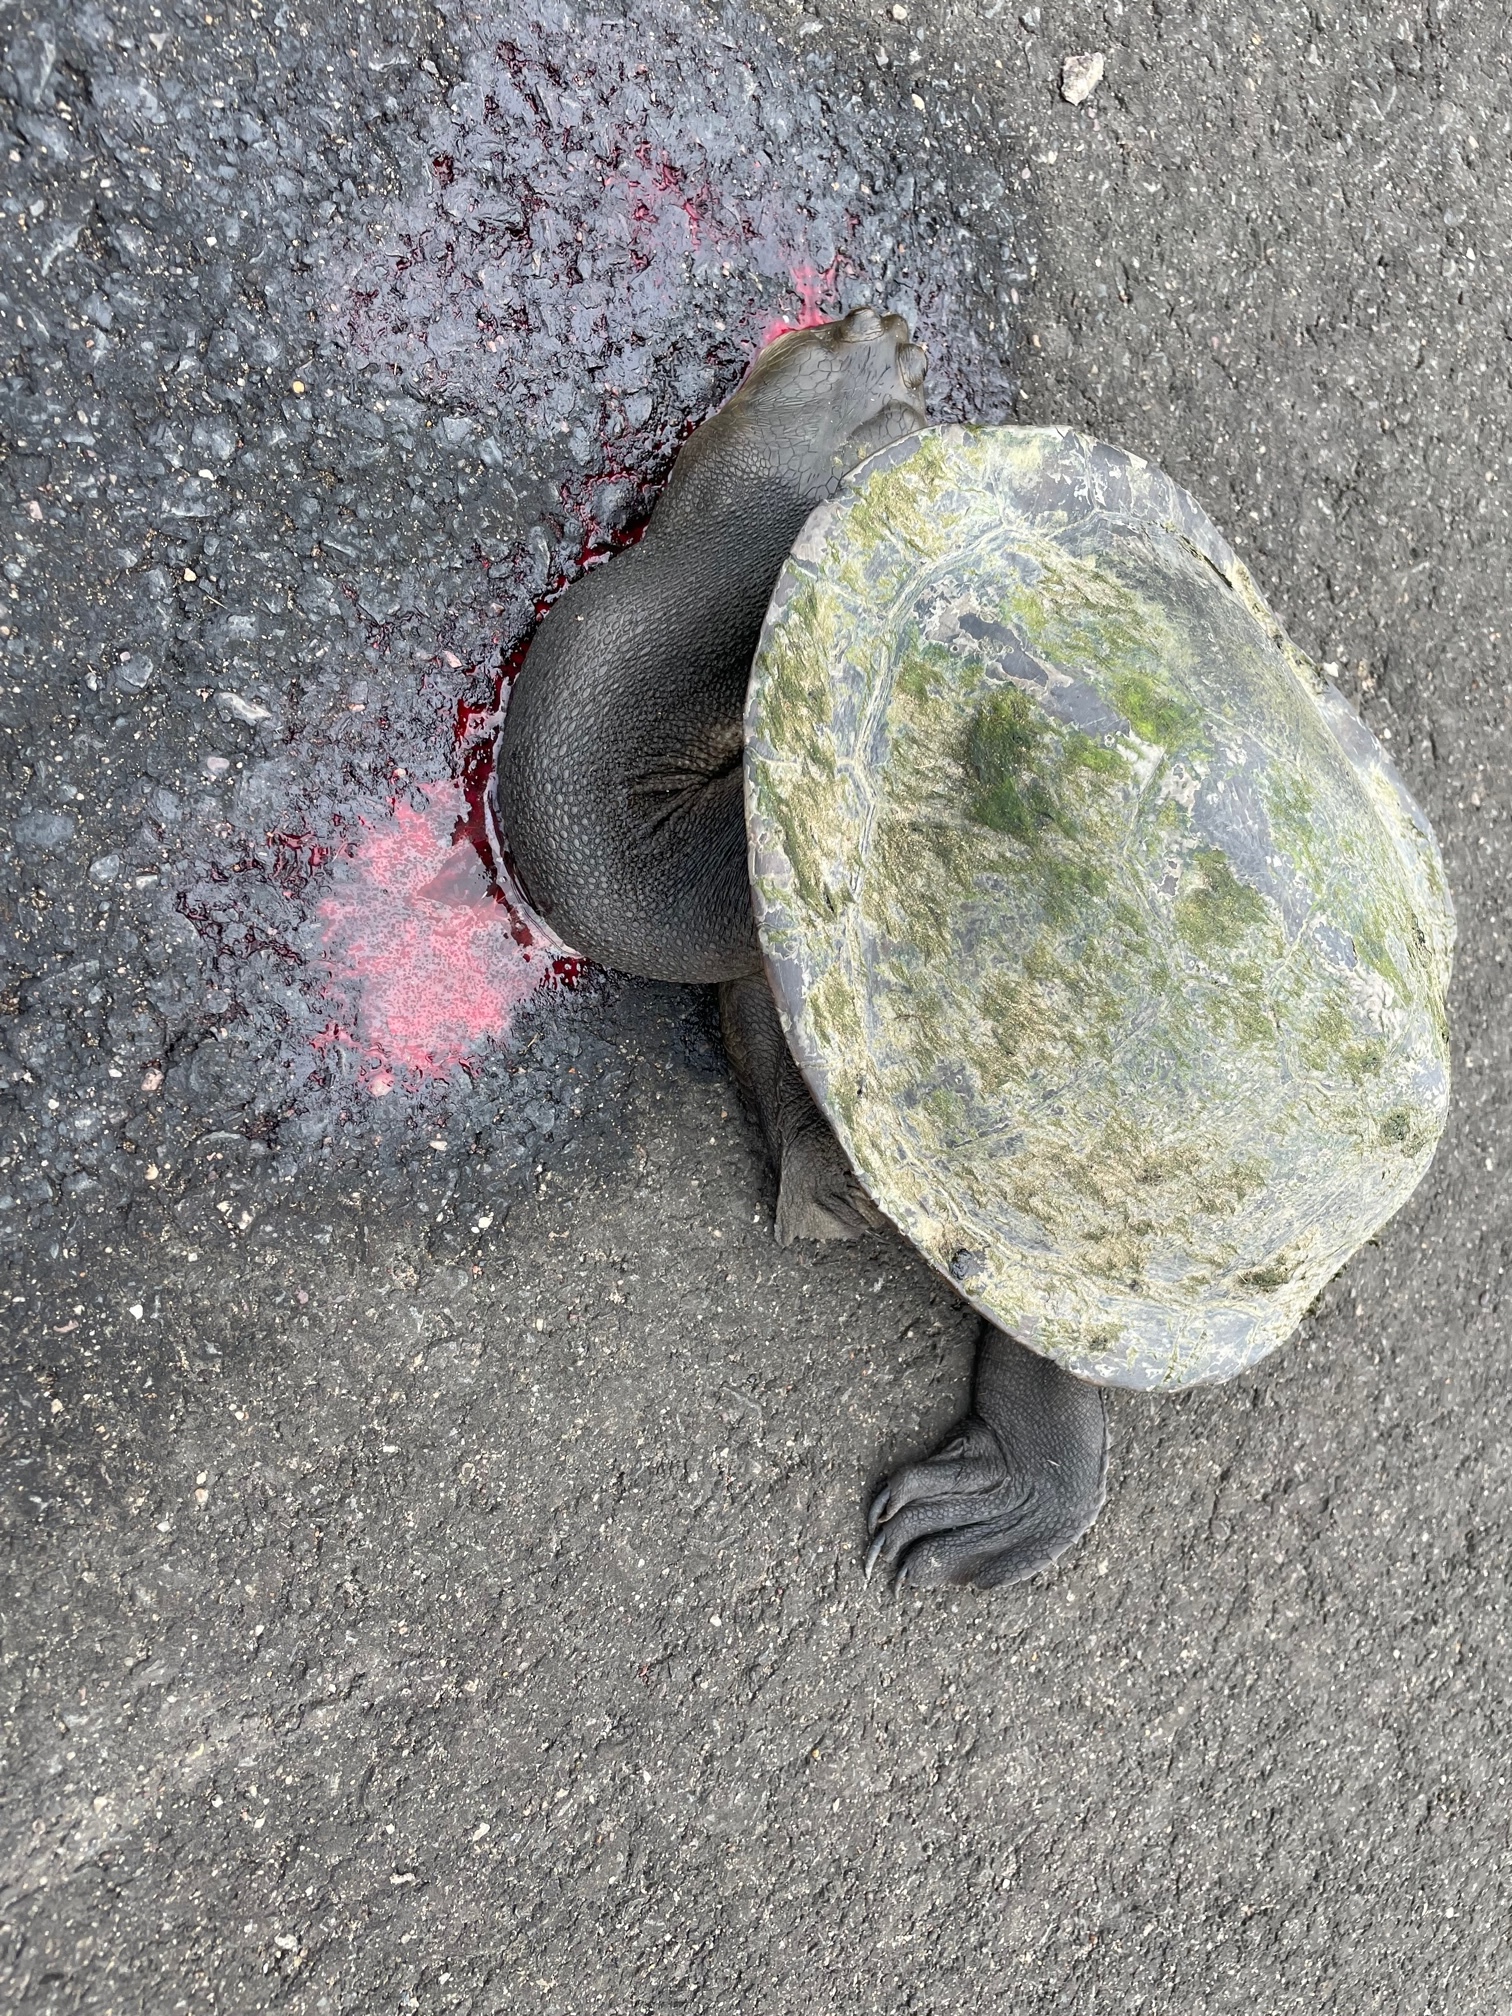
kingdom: Animalia
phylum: Chordata
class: Testudines
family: Chelidae
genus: Chelodina
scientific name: Chelodina expansa
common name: Giant snakeneck turtle
